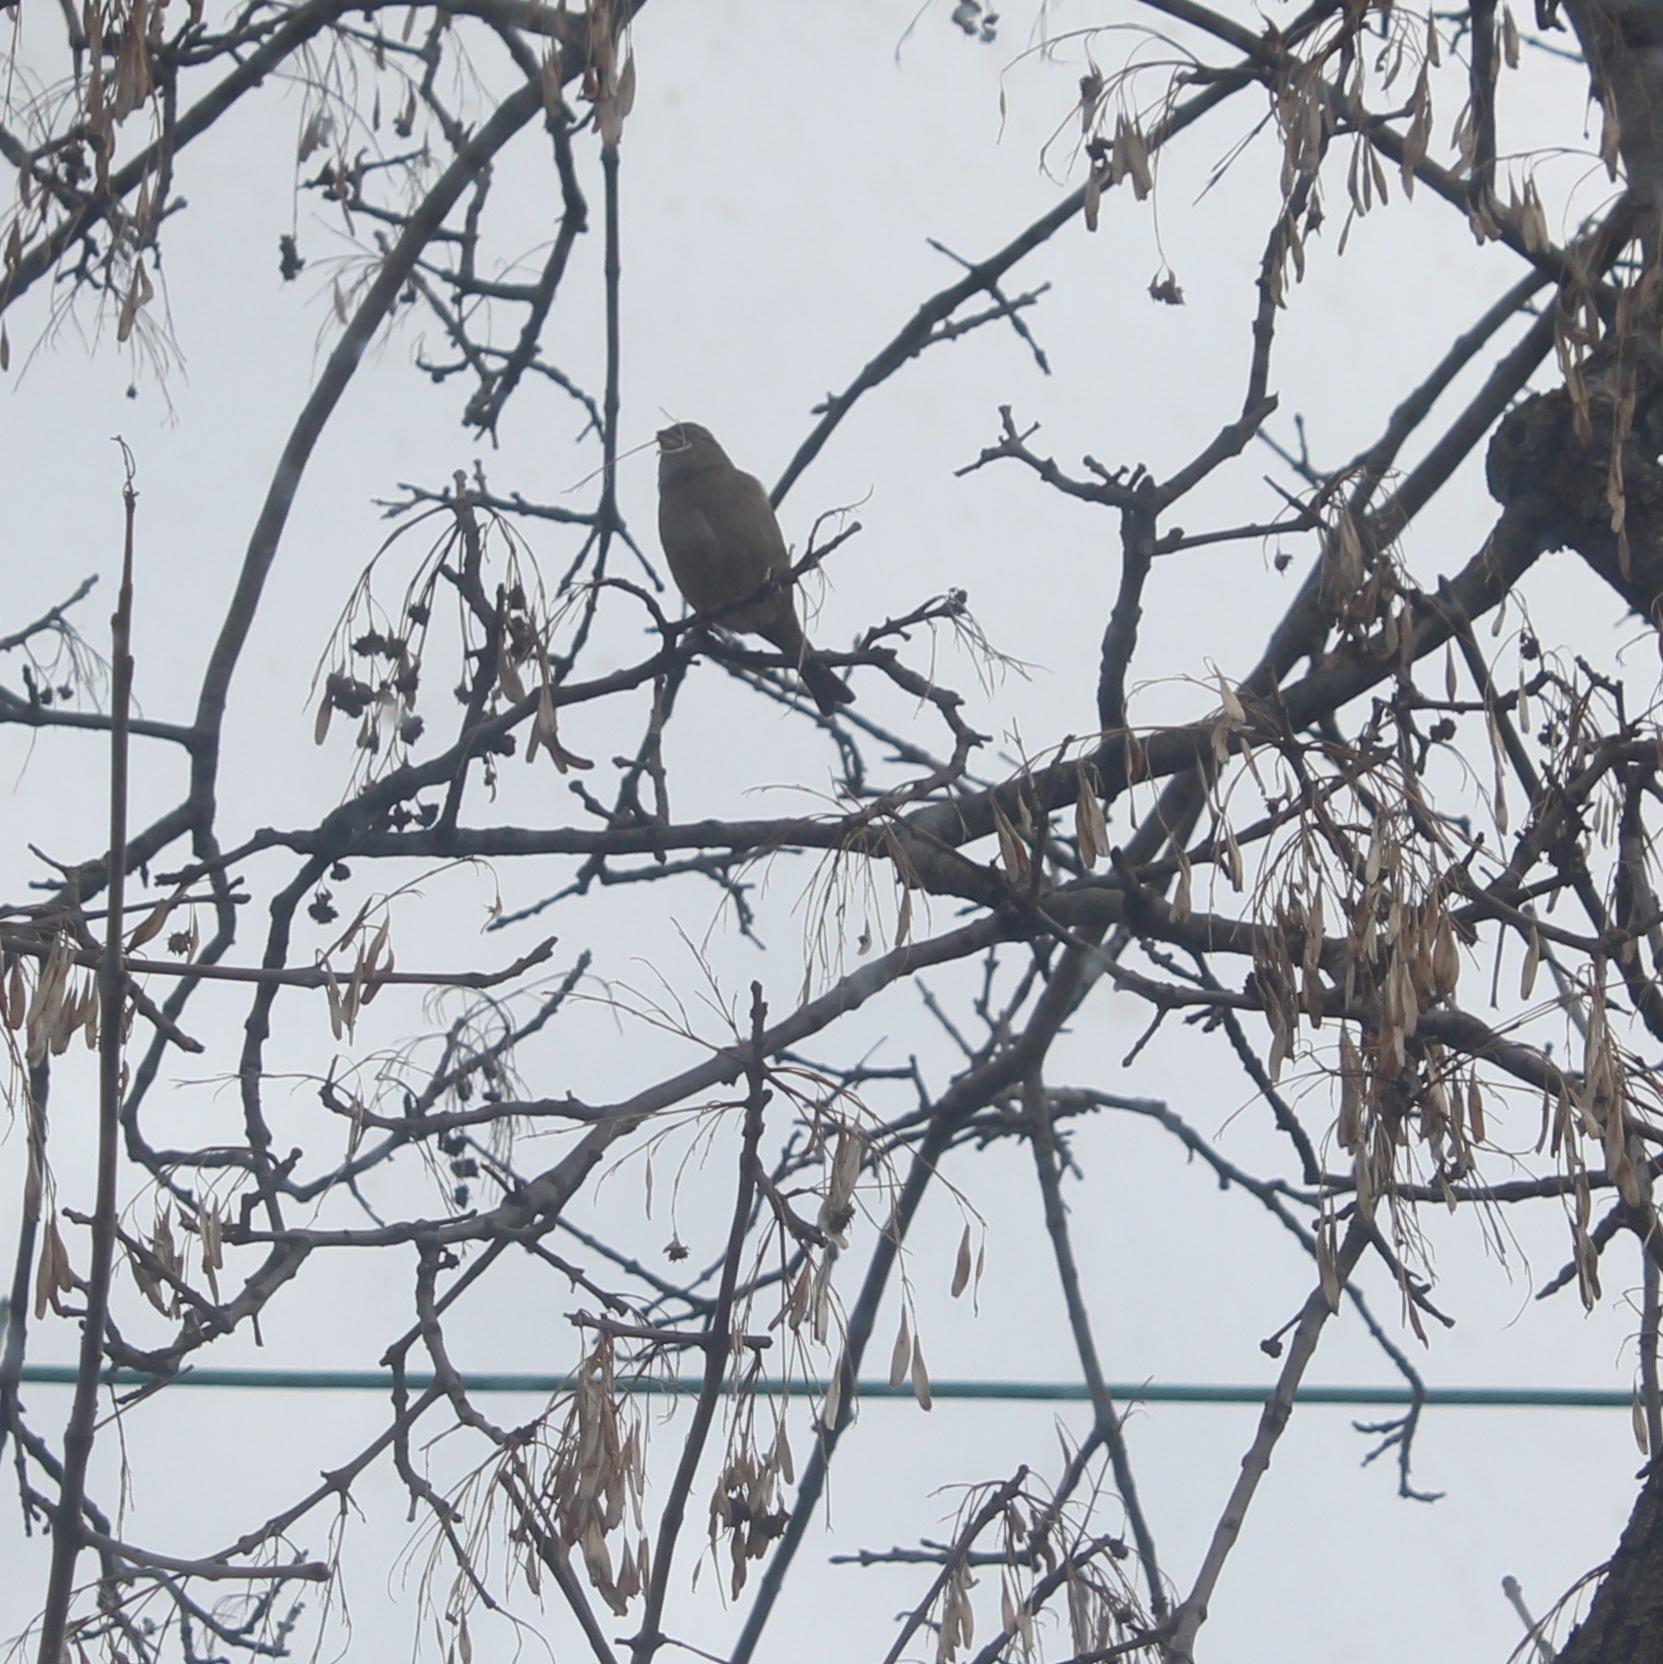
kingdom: Animalia
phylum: Chordata
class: Aves
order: Passeriformes
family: Passeridae
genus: Passer
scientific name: Passer domesticus
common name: House sparrow
